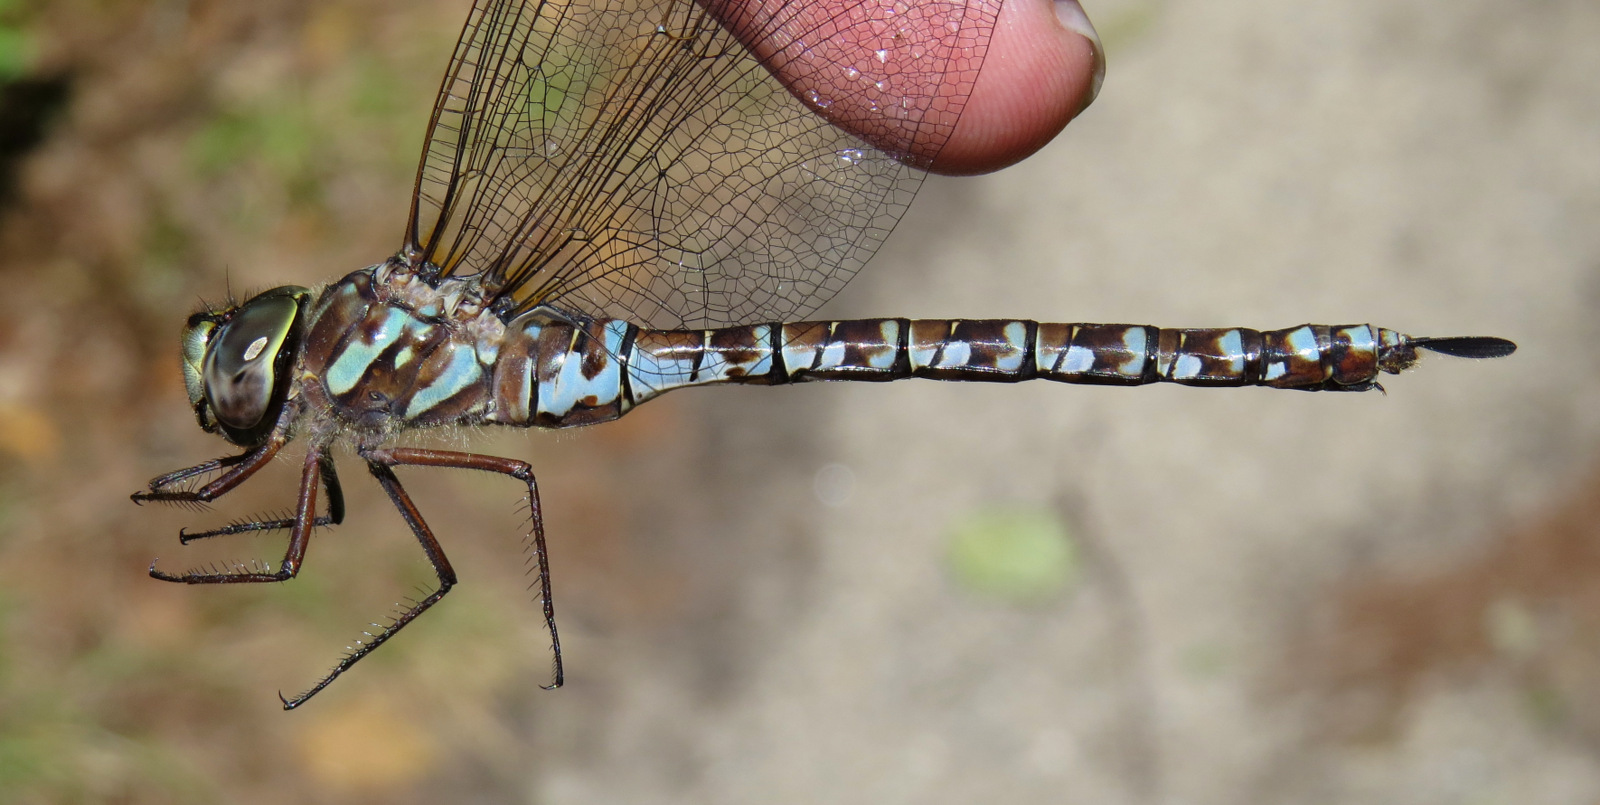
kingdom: Animalia
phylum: Arthropoda
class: Insecta
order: Odonata
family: Aeshnidae
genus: Aeshna
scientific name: Aeshna canadensis
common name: Canada darner
